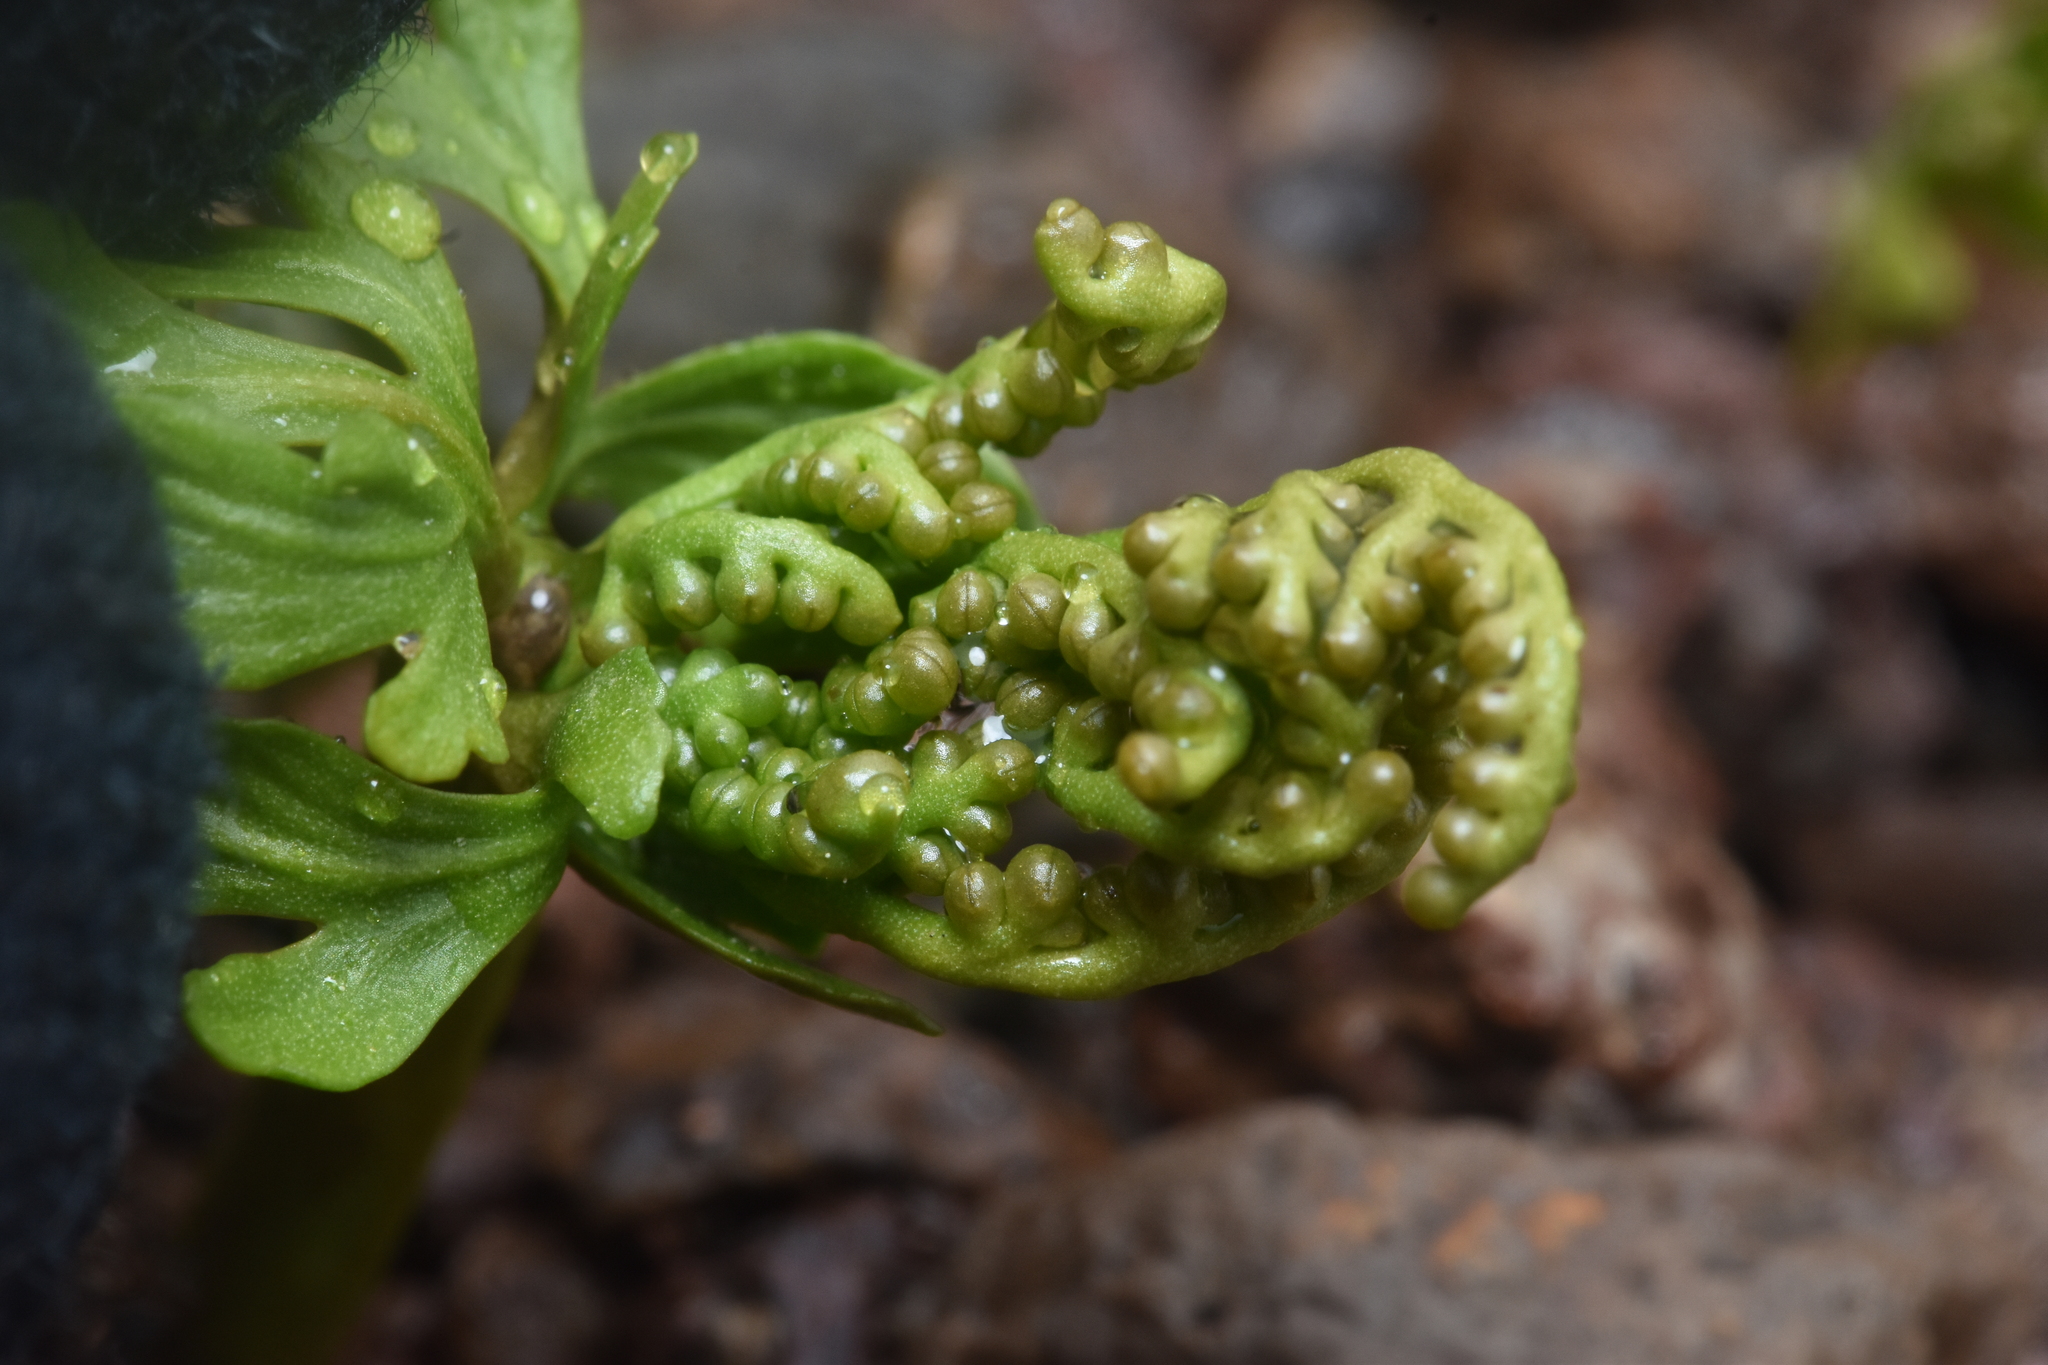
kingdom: Plantae
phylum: Tracheophyta
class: Polypodiopsida
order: Ophioglossales
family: Ophioglossaceae
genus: Botrychium
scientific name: Botrychium lanceolatum
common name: Lance-leaved moonwort
